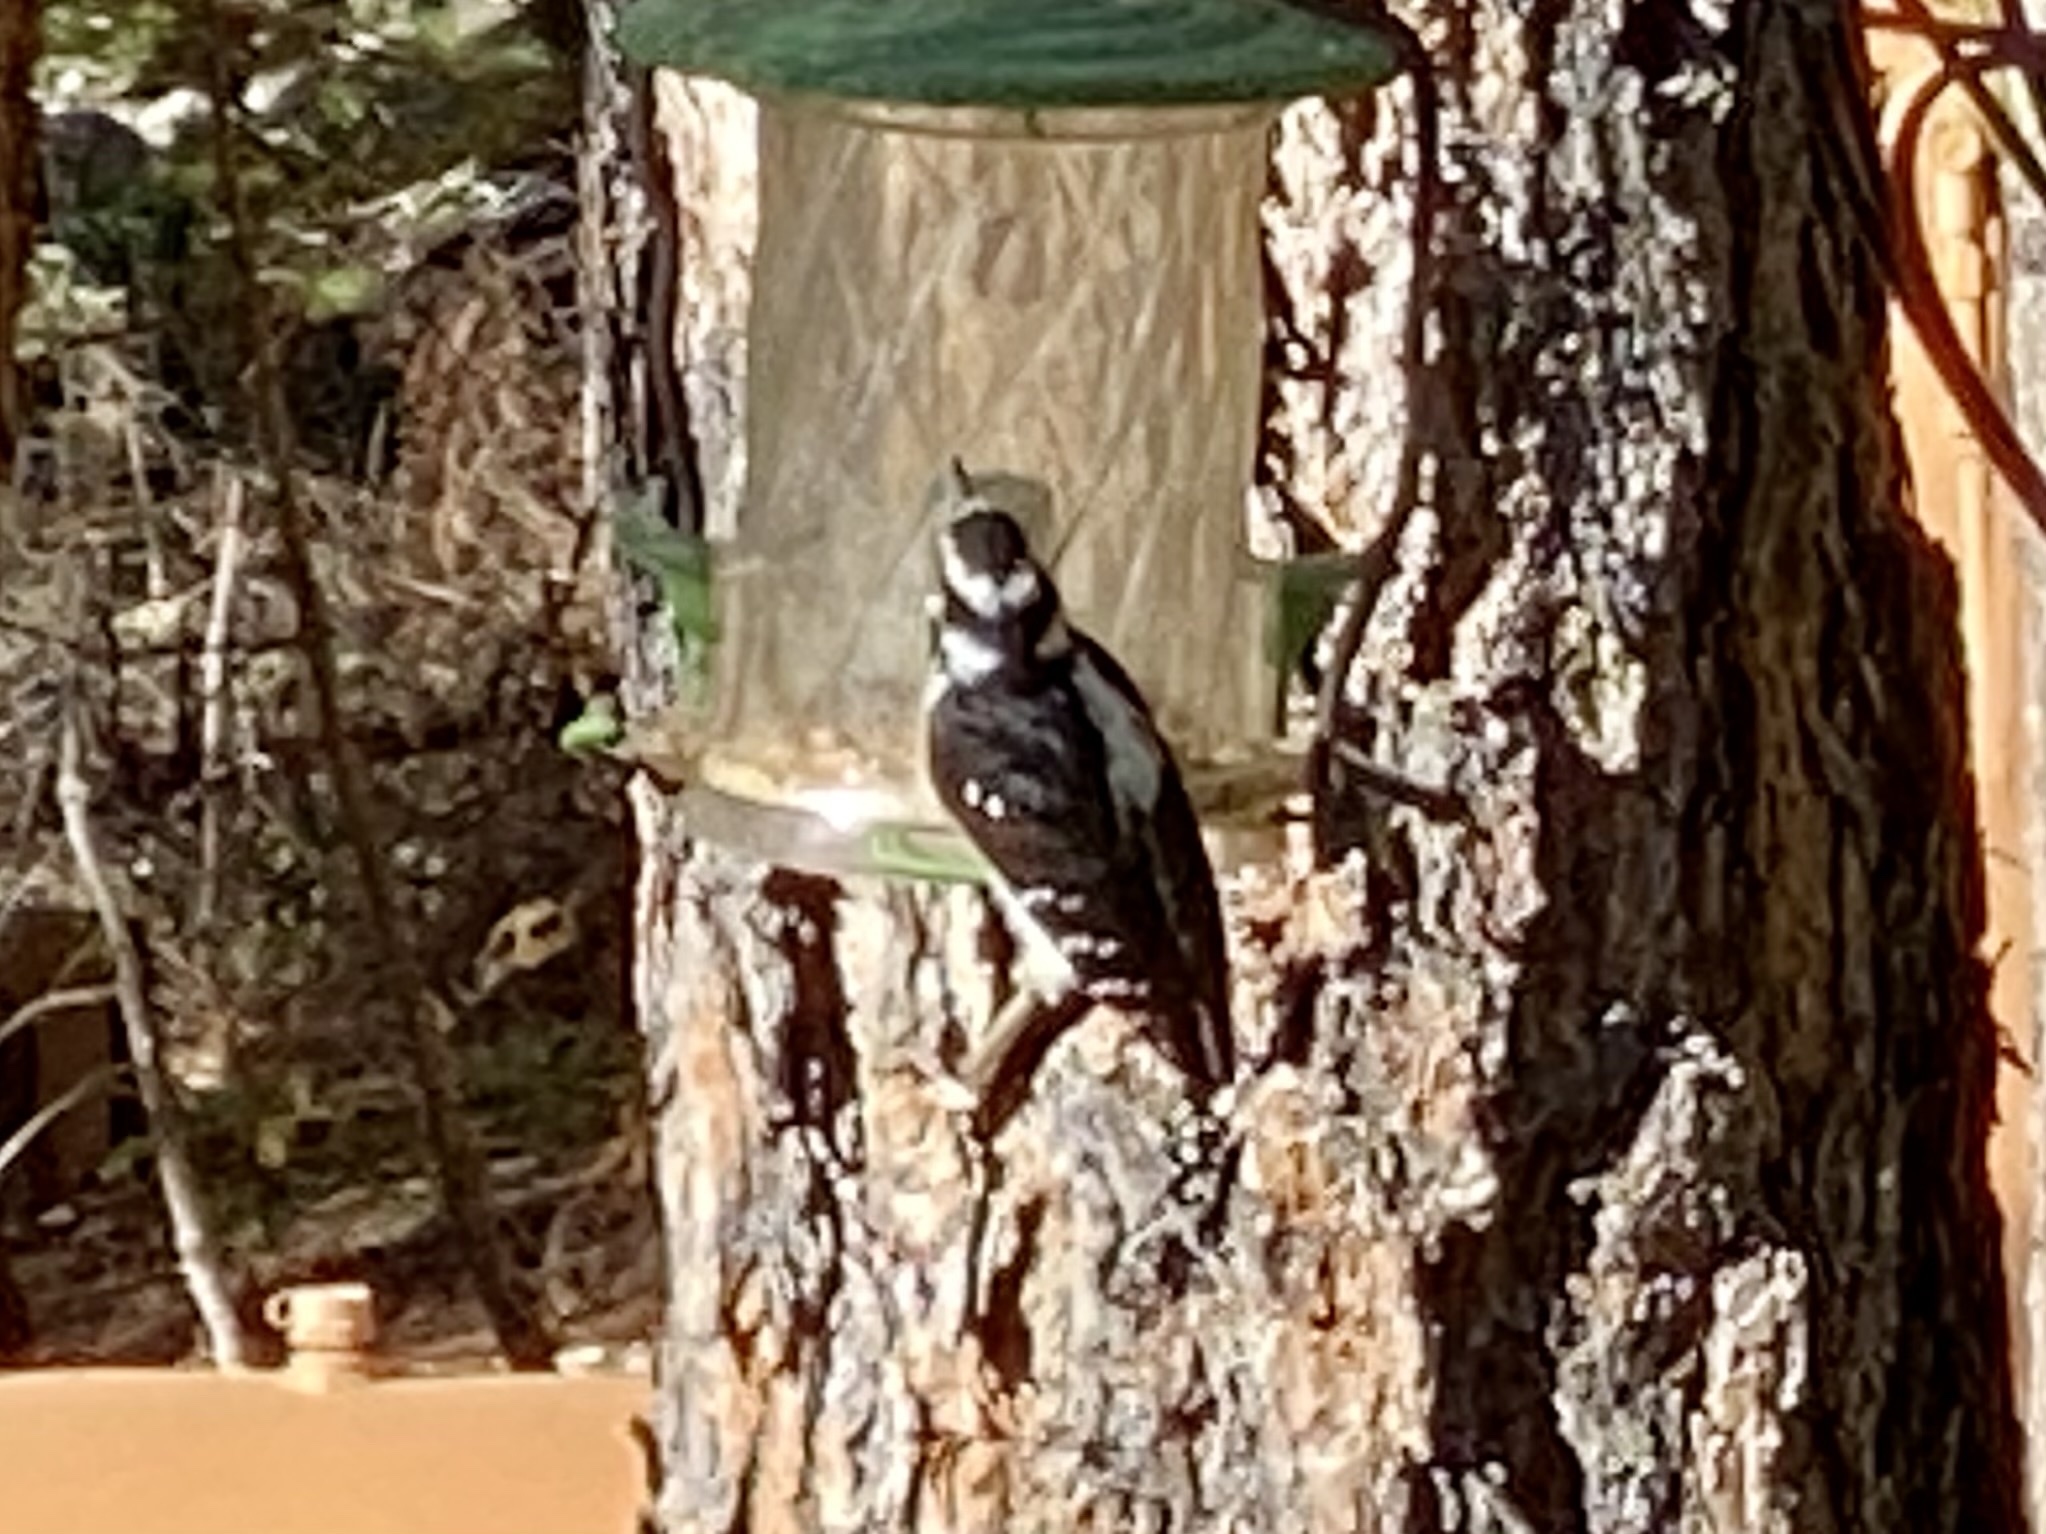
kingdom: Animalia
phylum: Chordata
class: Aves
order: Piciformes
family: Picidae
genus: Leuconotopicus
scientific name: Leuconotopicus villosus
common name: Hairy woodpecker
